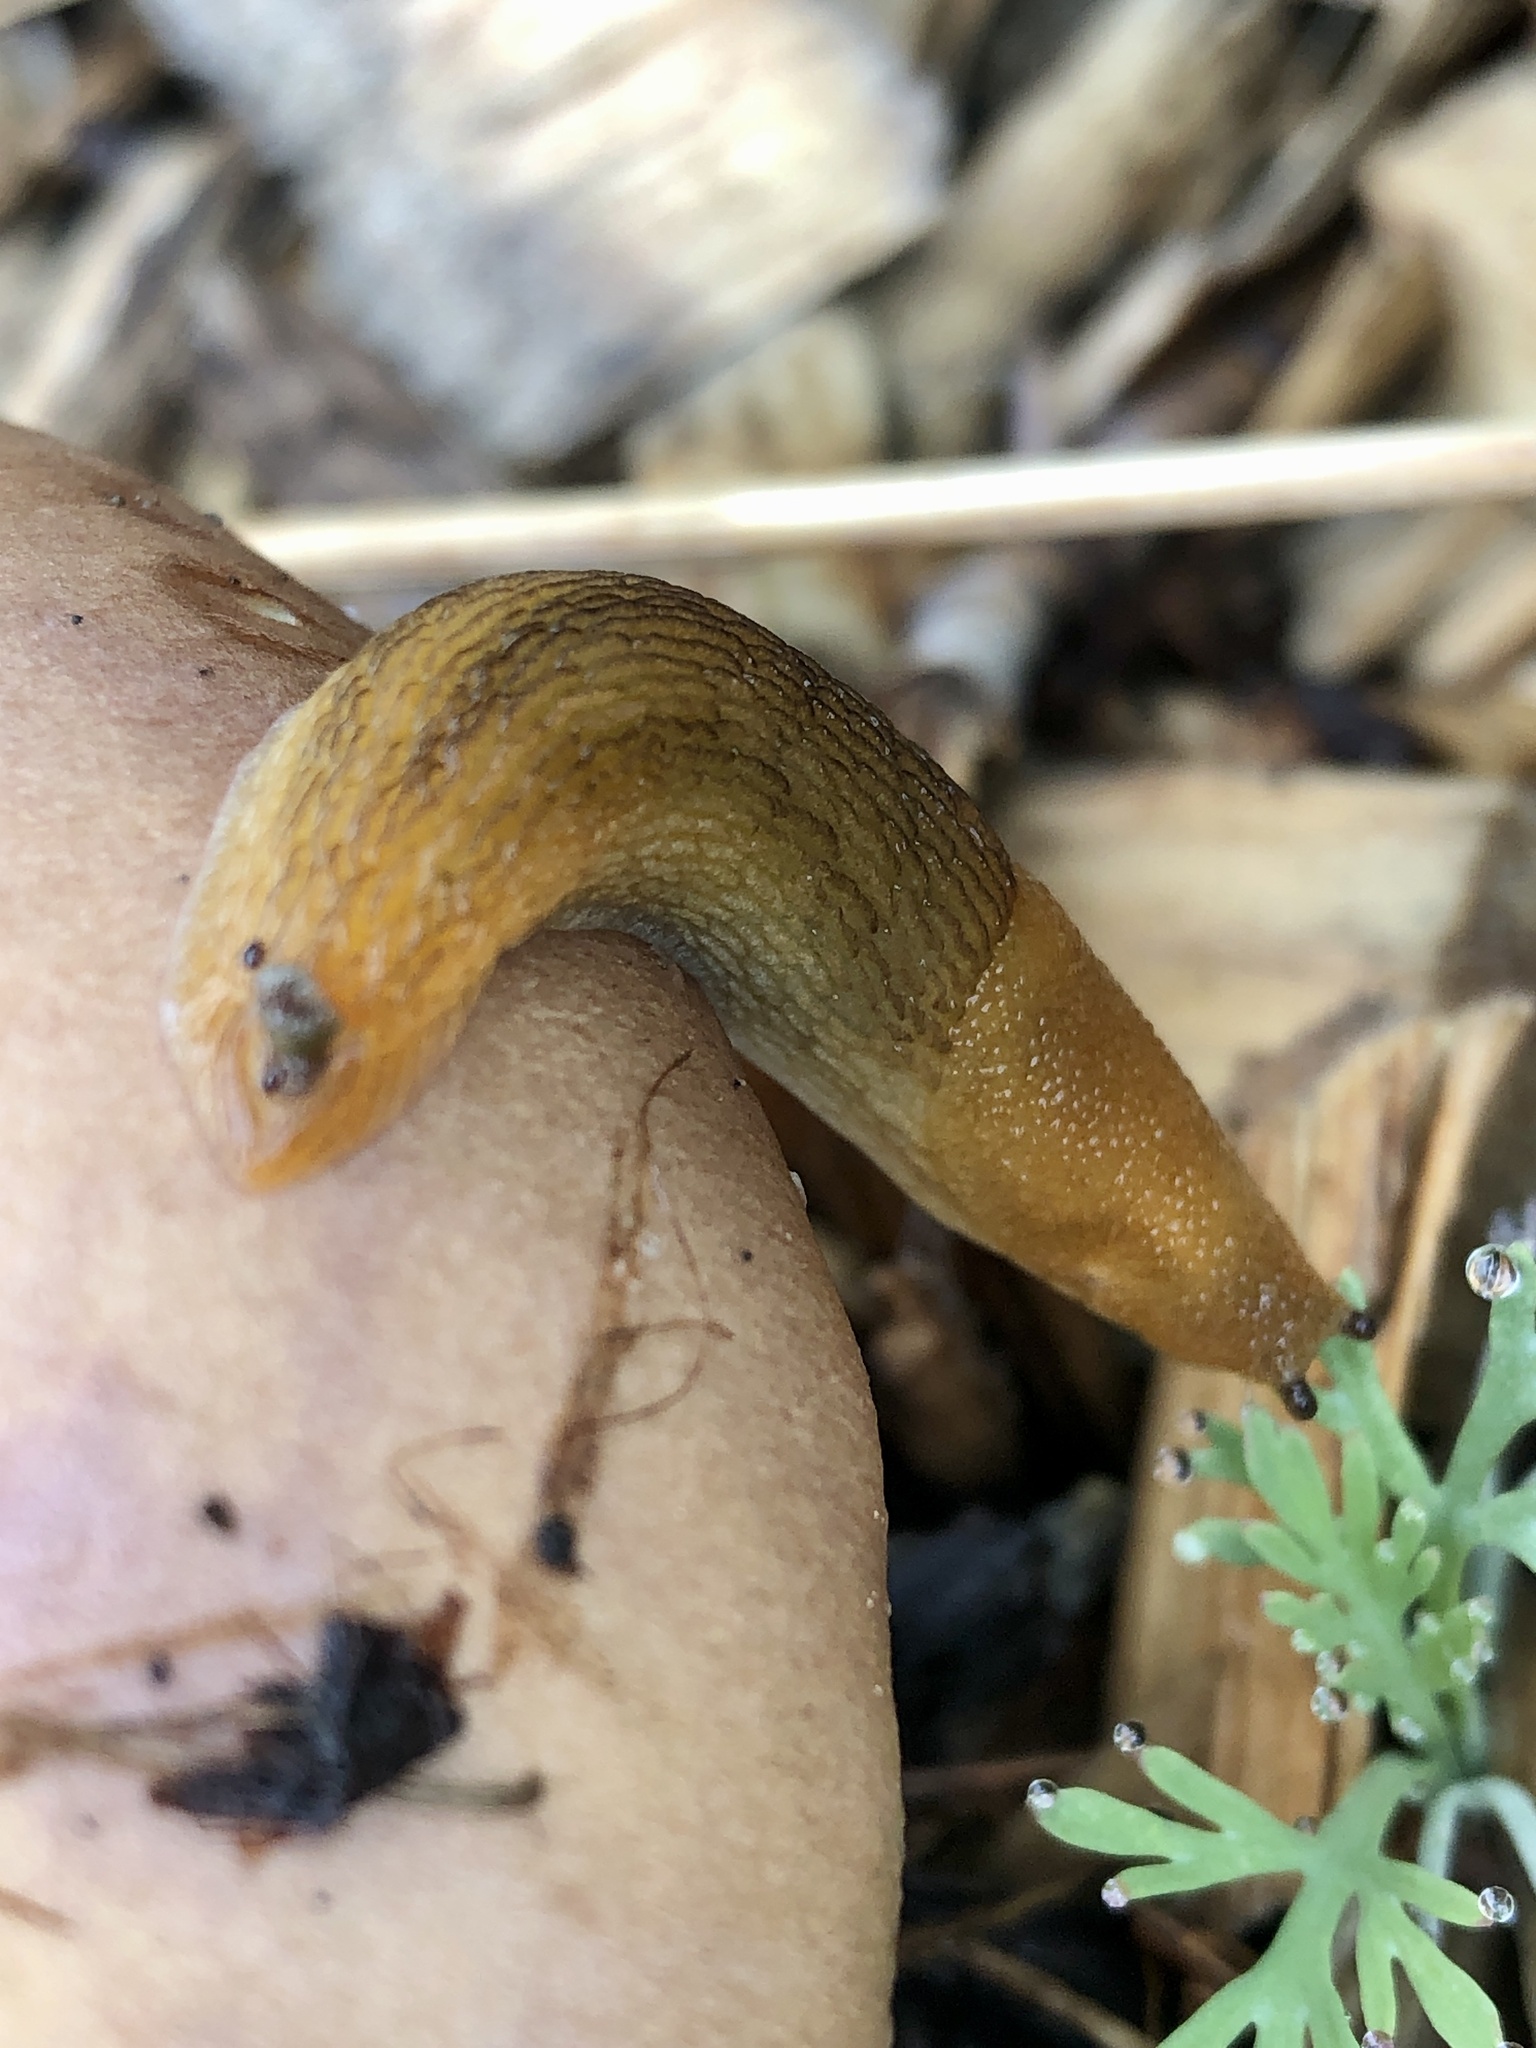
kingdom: Animalia
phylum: Mollusca
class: Gastropoda
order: Stylommatophora
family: Arionidae
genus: Arion
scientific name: Arion subfuscus
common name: Dusky arion
